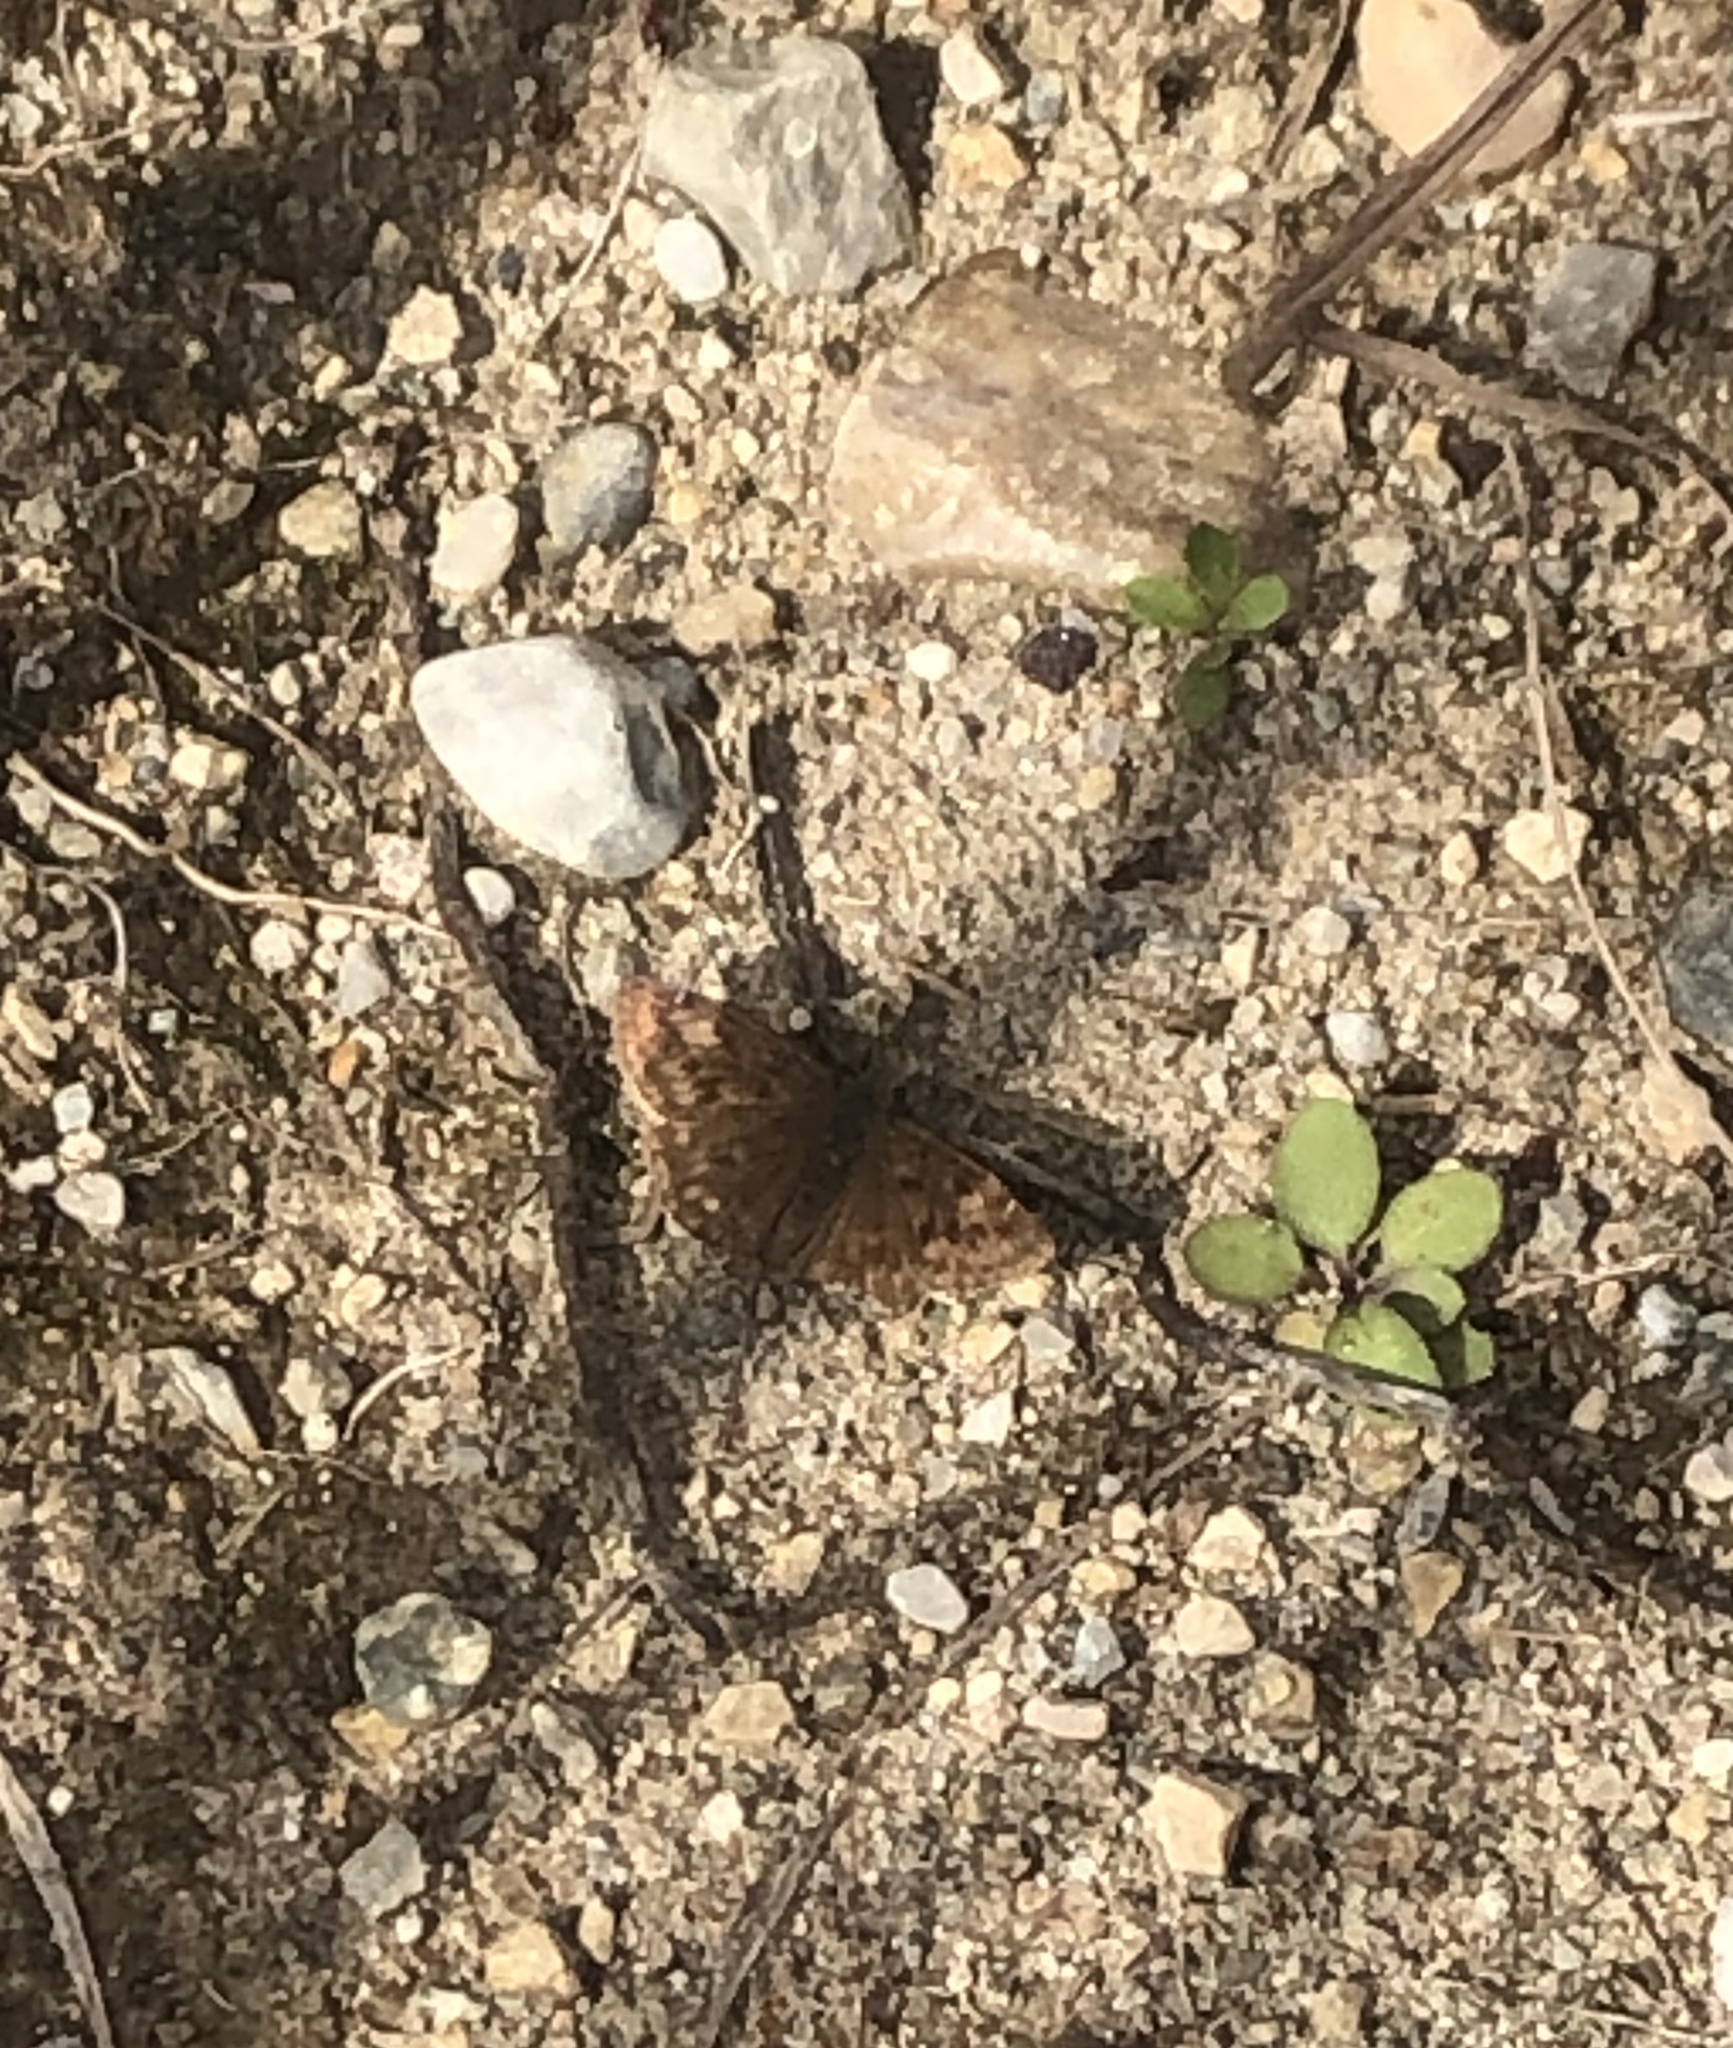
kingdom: Animalia
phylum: Arthropoda
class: Insecta
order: Lepidoptera
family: Hesperiidae
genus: Erynnis
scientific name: Erynnis baptisiae
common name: Wild indigo duskywing
